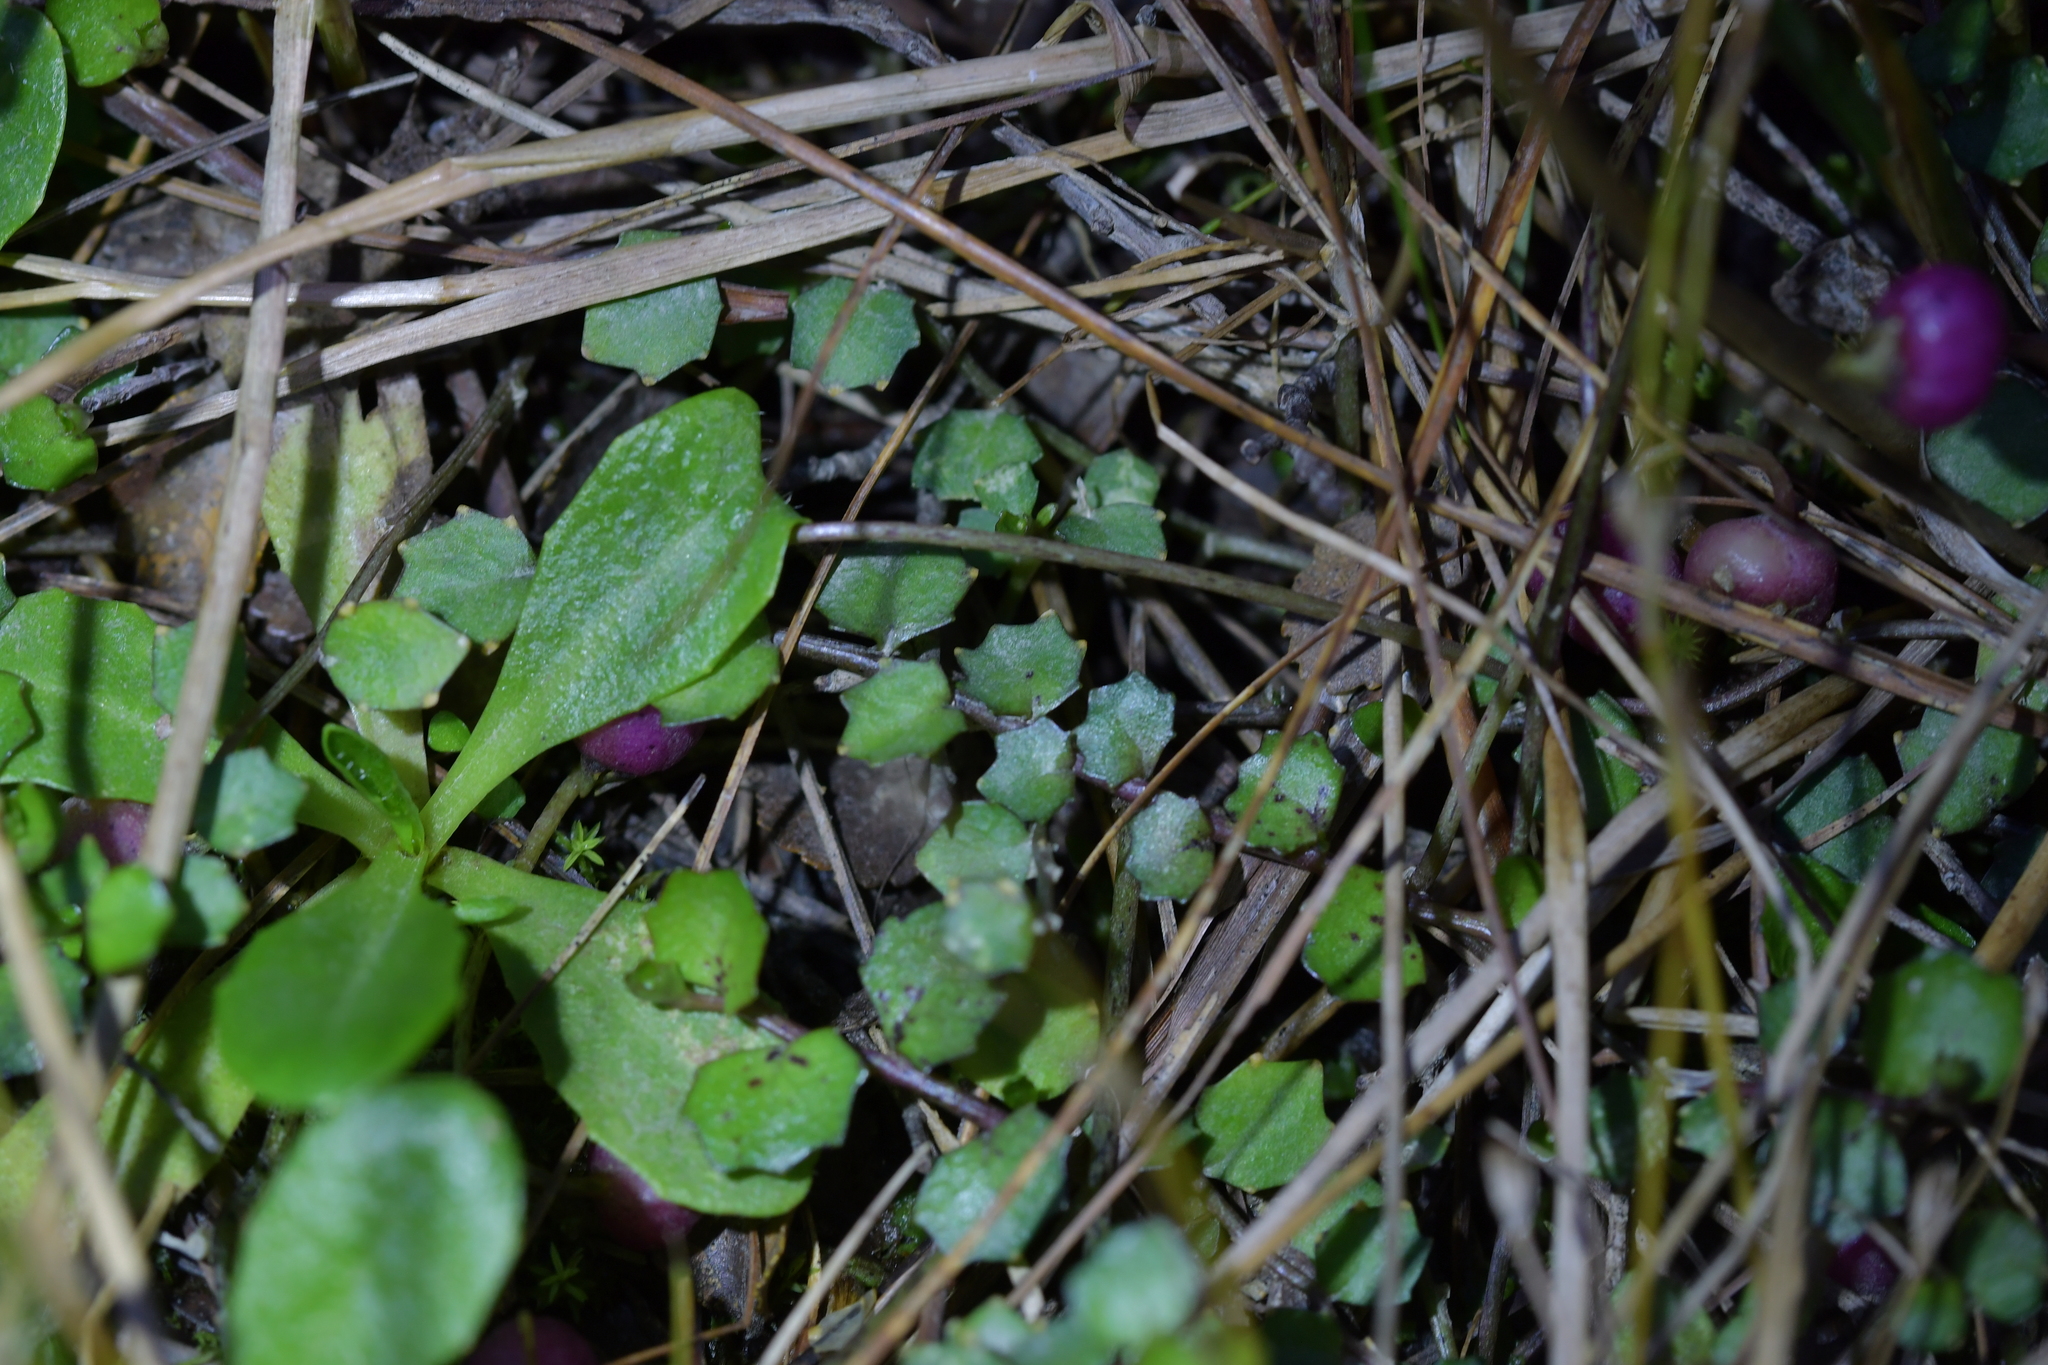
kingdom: Plantae
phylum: Tracheophyta
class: Magnoliopsida
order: Asterales
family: Campanulaceae
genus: Lobelia
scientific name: Lobelia angulata
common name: Lawn lobelia
